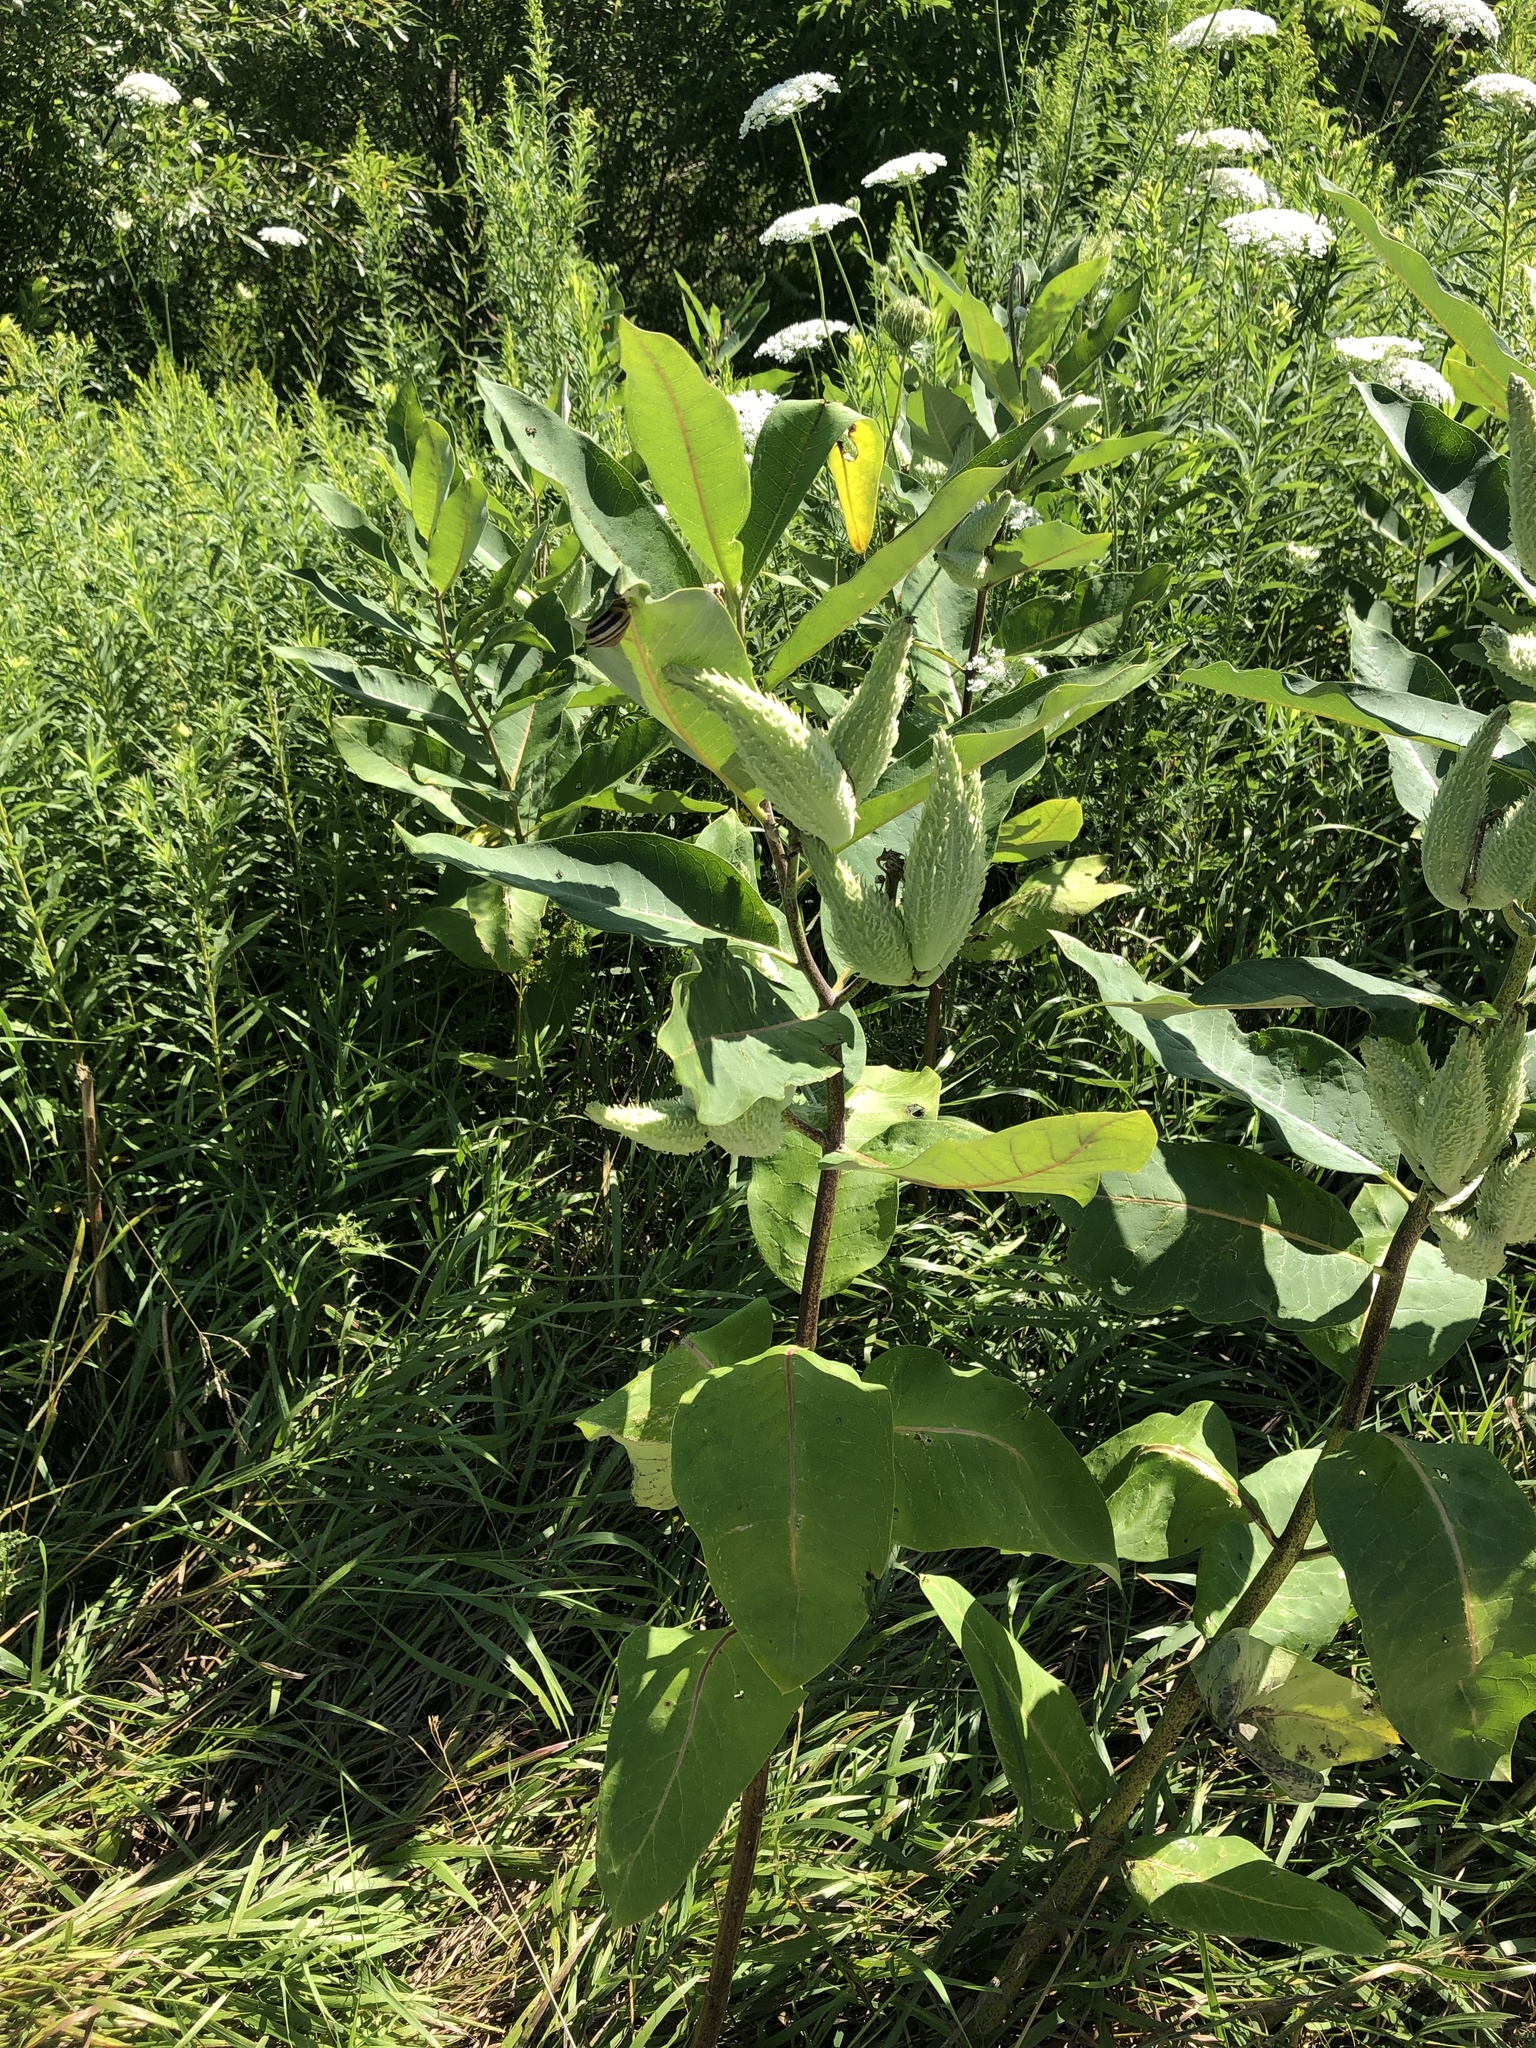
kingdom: Plantae
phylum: Tracheophyta
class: Magnoliopsida
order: Gentianales
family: Apocynaceae
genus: Asclepias
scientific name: Asclepias syriaca
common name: Common milkweed
